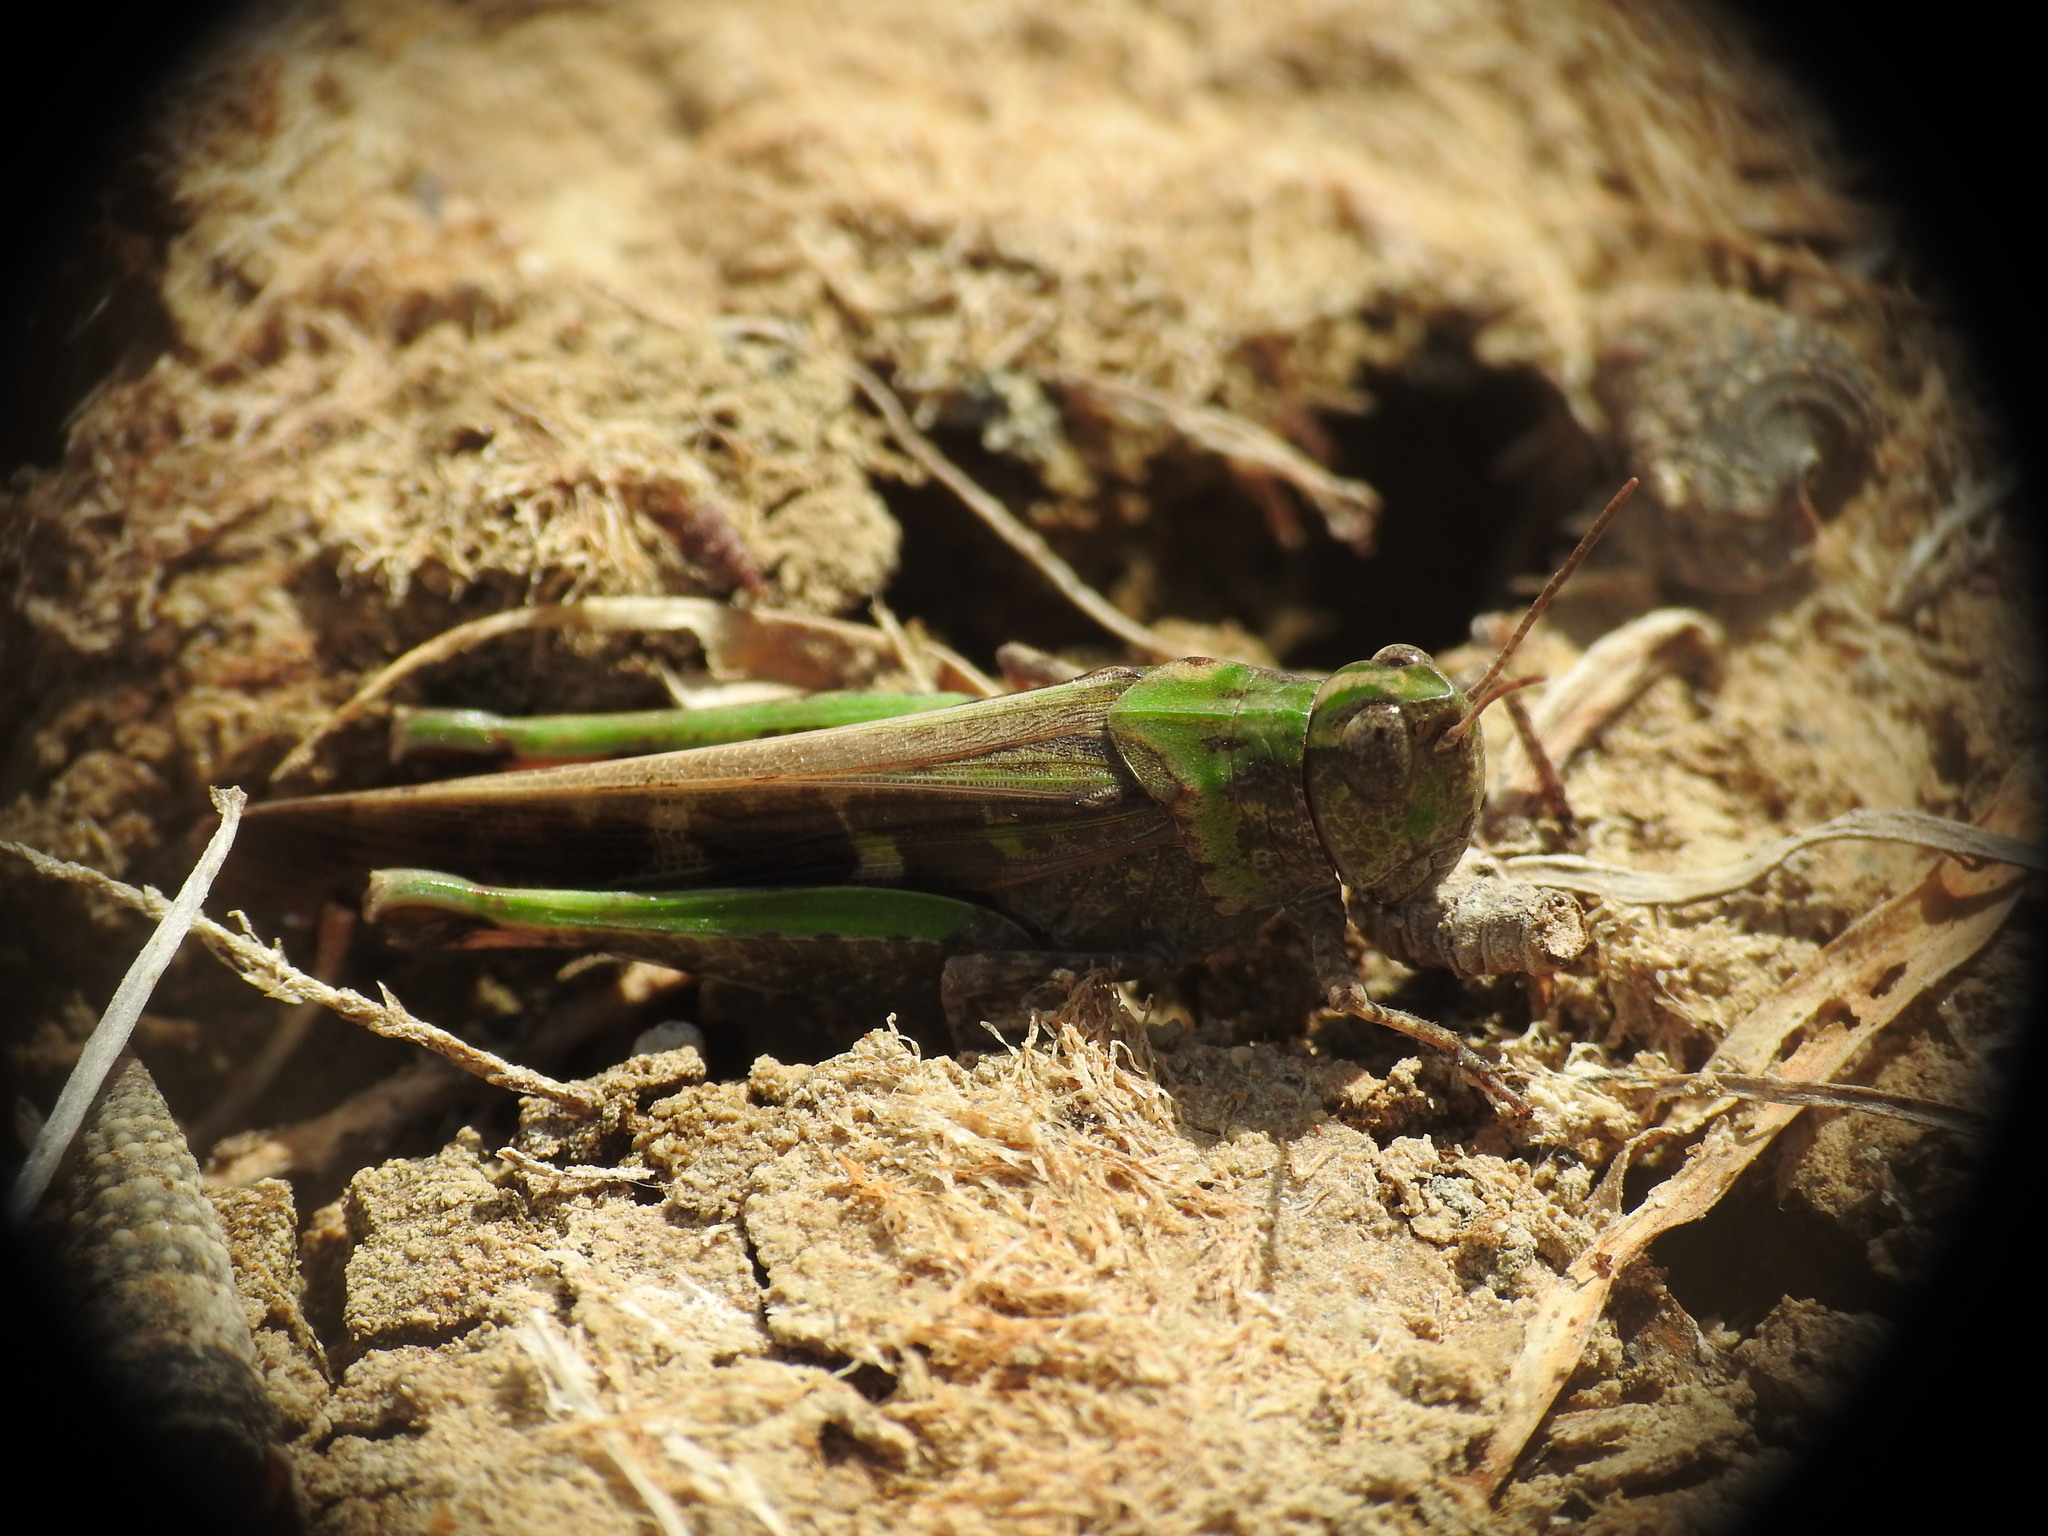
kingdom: Animalia
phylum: Arthropoda
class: Insecta
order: Orthoptera
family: Acrididae
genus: Aiolopus
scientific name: Aiolopus strepens
